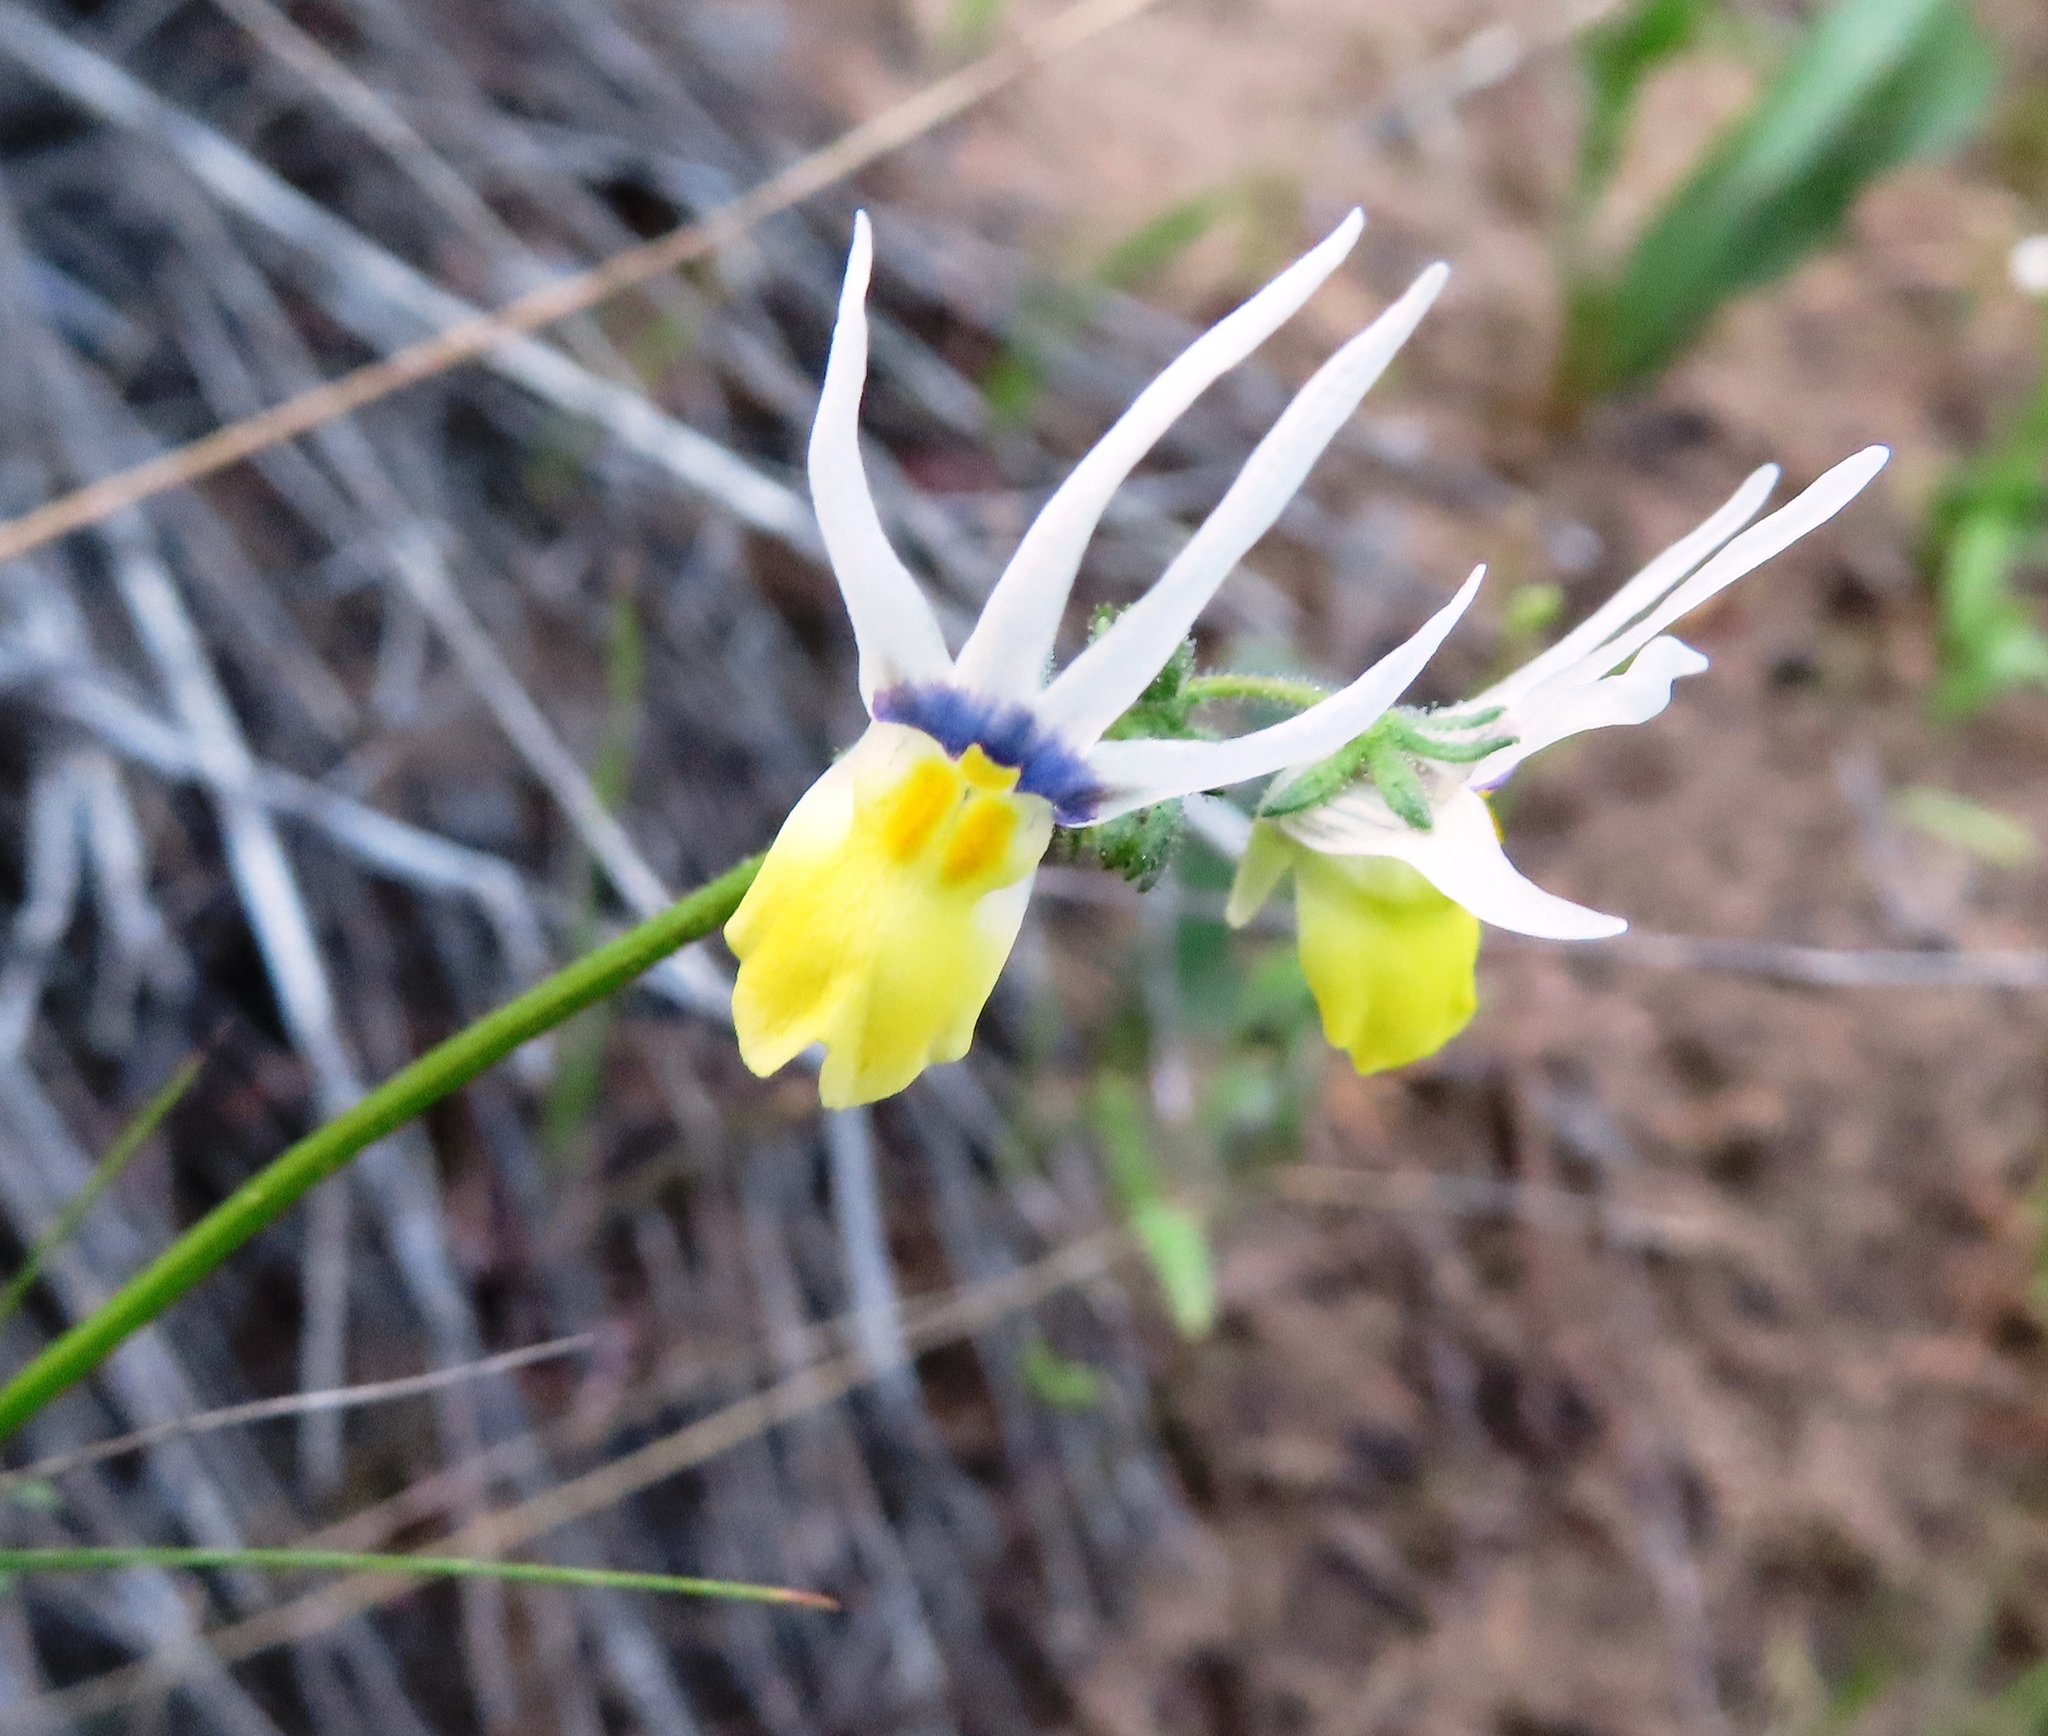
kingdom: Plantae
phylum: Tracheophyta
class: Magnoliopsida
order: Lamiales
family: Scrophulariaceae
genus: Nemesia
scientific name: Nemesia cheiranthus
